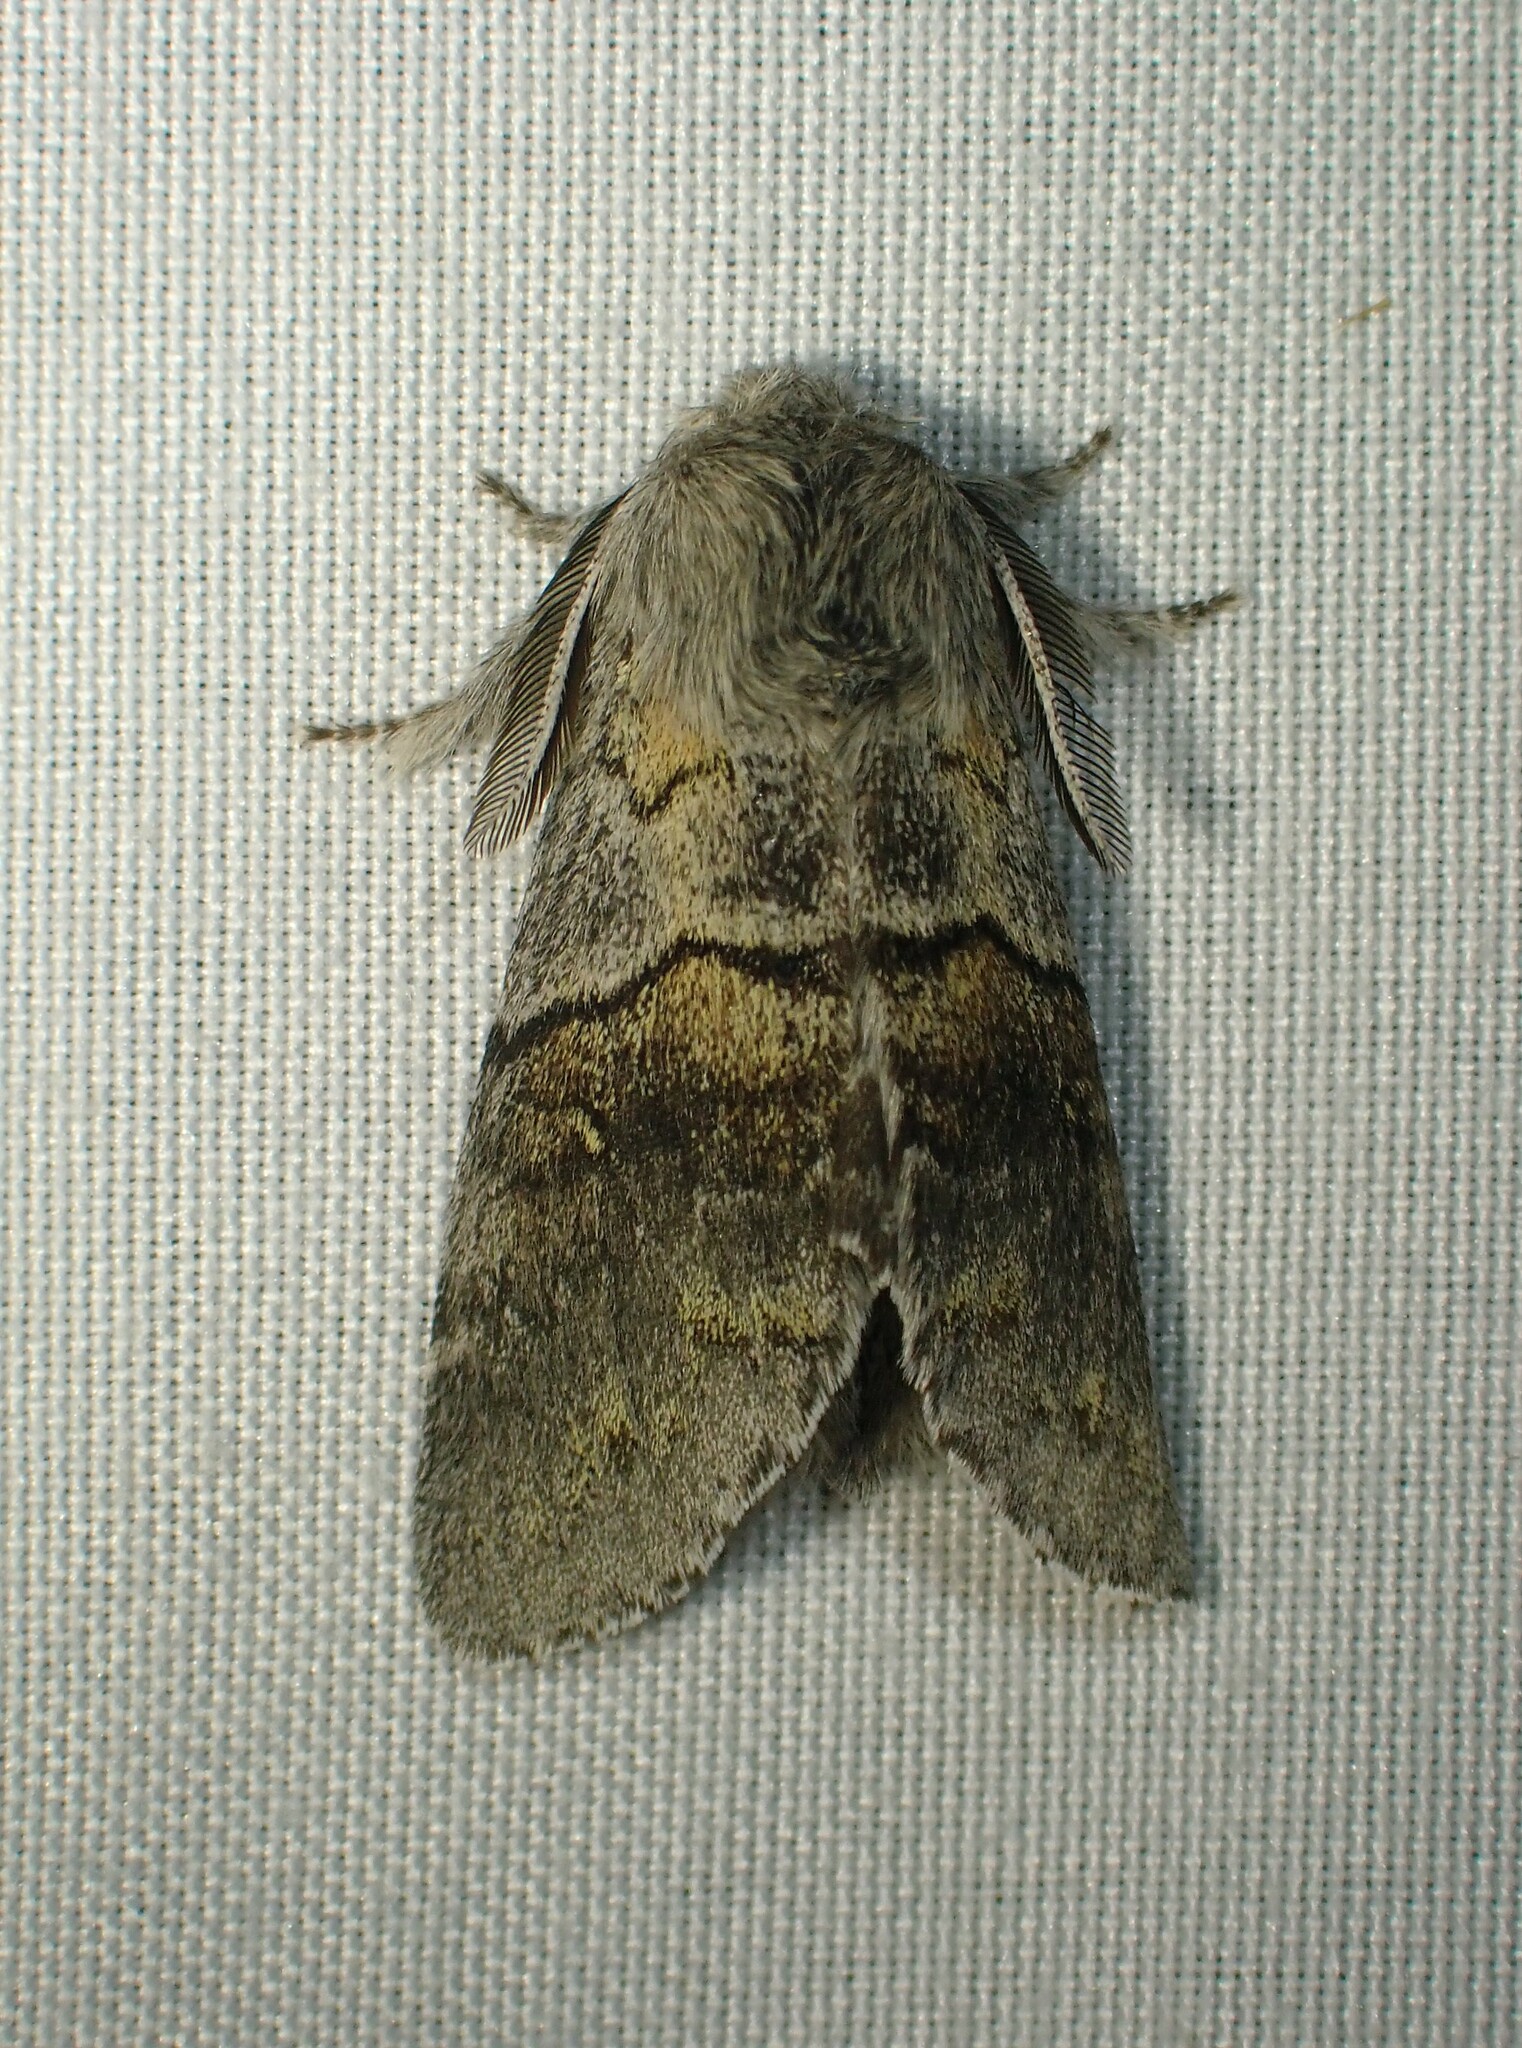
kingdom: Animalia
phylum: Arthropoda
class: Insecta
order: Lepidoptera
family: Notodontidae
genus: Gluphisia
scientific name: Gluphisia lintneri
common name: Lintner's gluphisia moth
